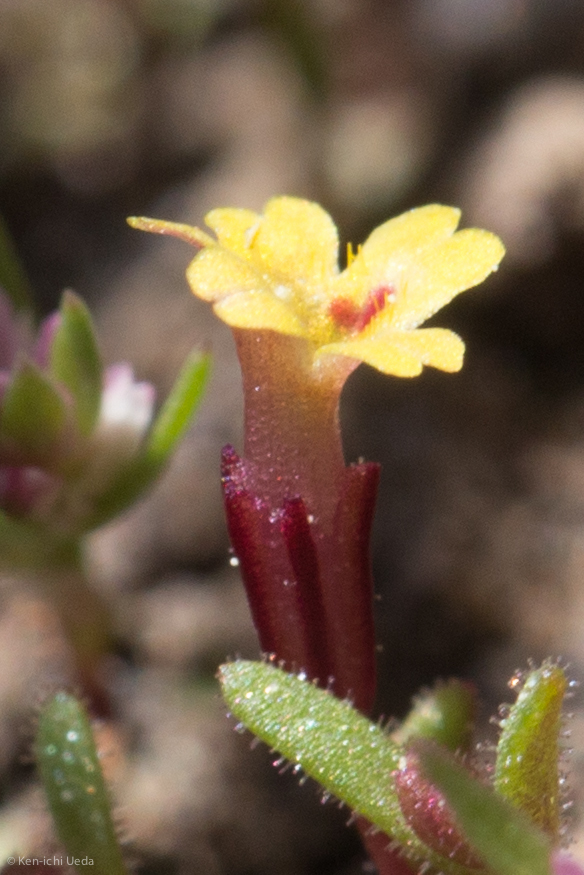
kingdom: Plantae
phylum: Tracheophyta
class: Magnoliopsida
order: Lamiales
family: Phrymaceae
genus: Erythranthe
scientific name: Erythranthe suksdorfii
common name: Suksdorf's monkeyflower
